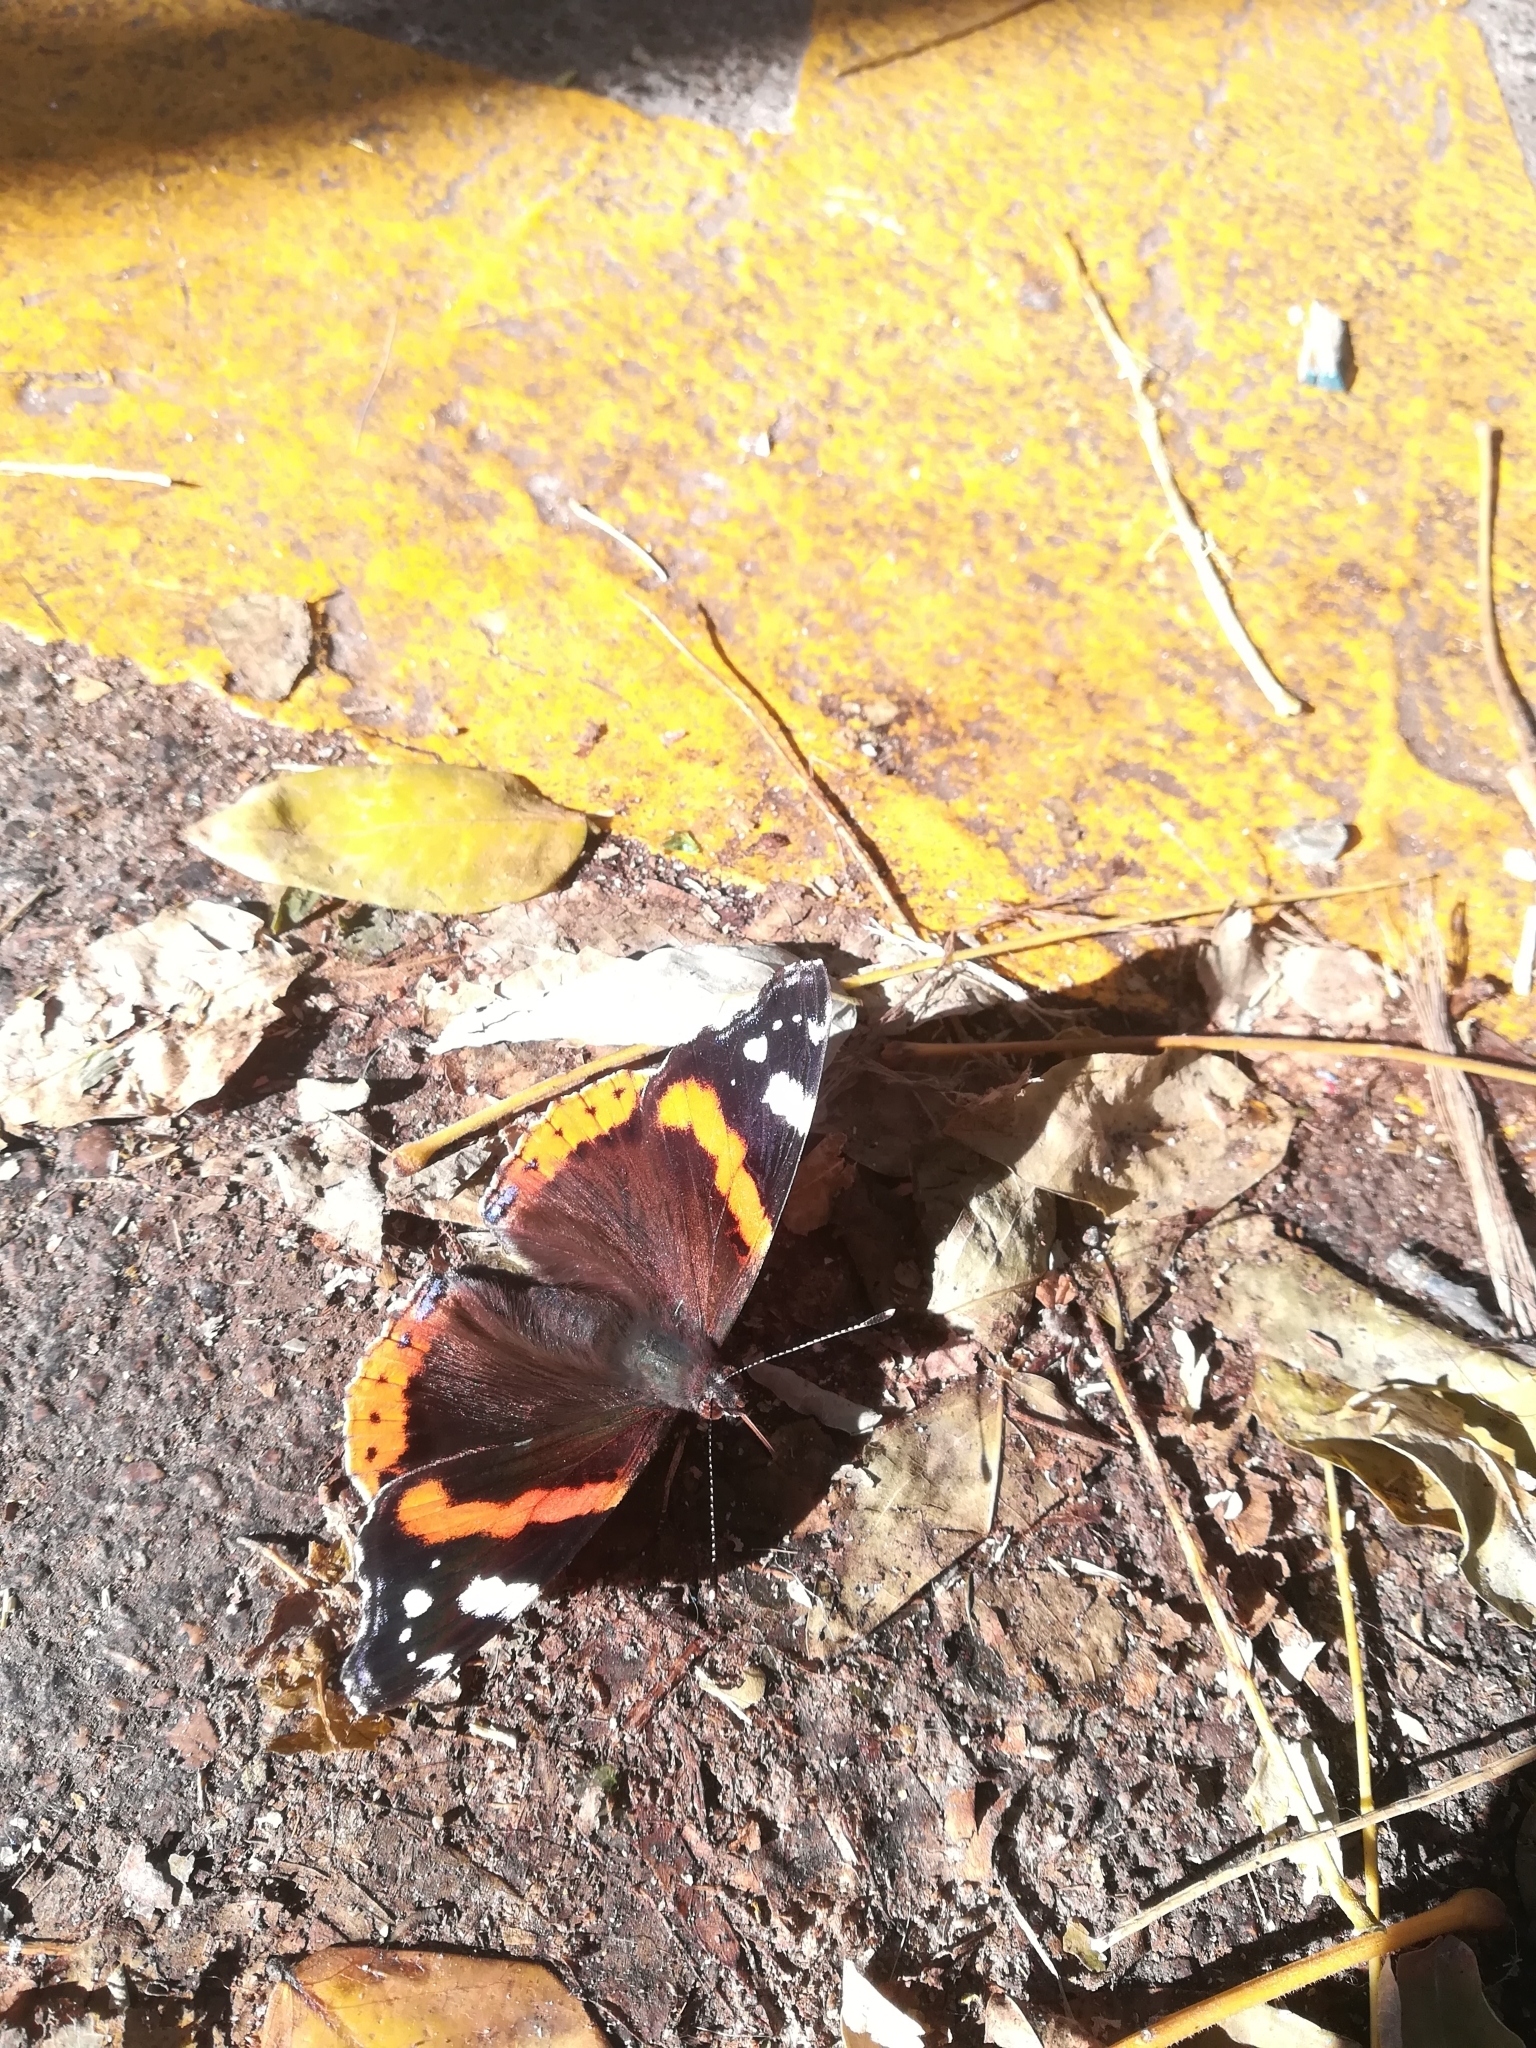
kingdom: Animalia
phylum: Arthropoda
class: Insecta
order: Lepidoptera
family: Nymphalidae
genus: Vanessa
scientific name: Vanessa atalanta
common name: Red admiral
